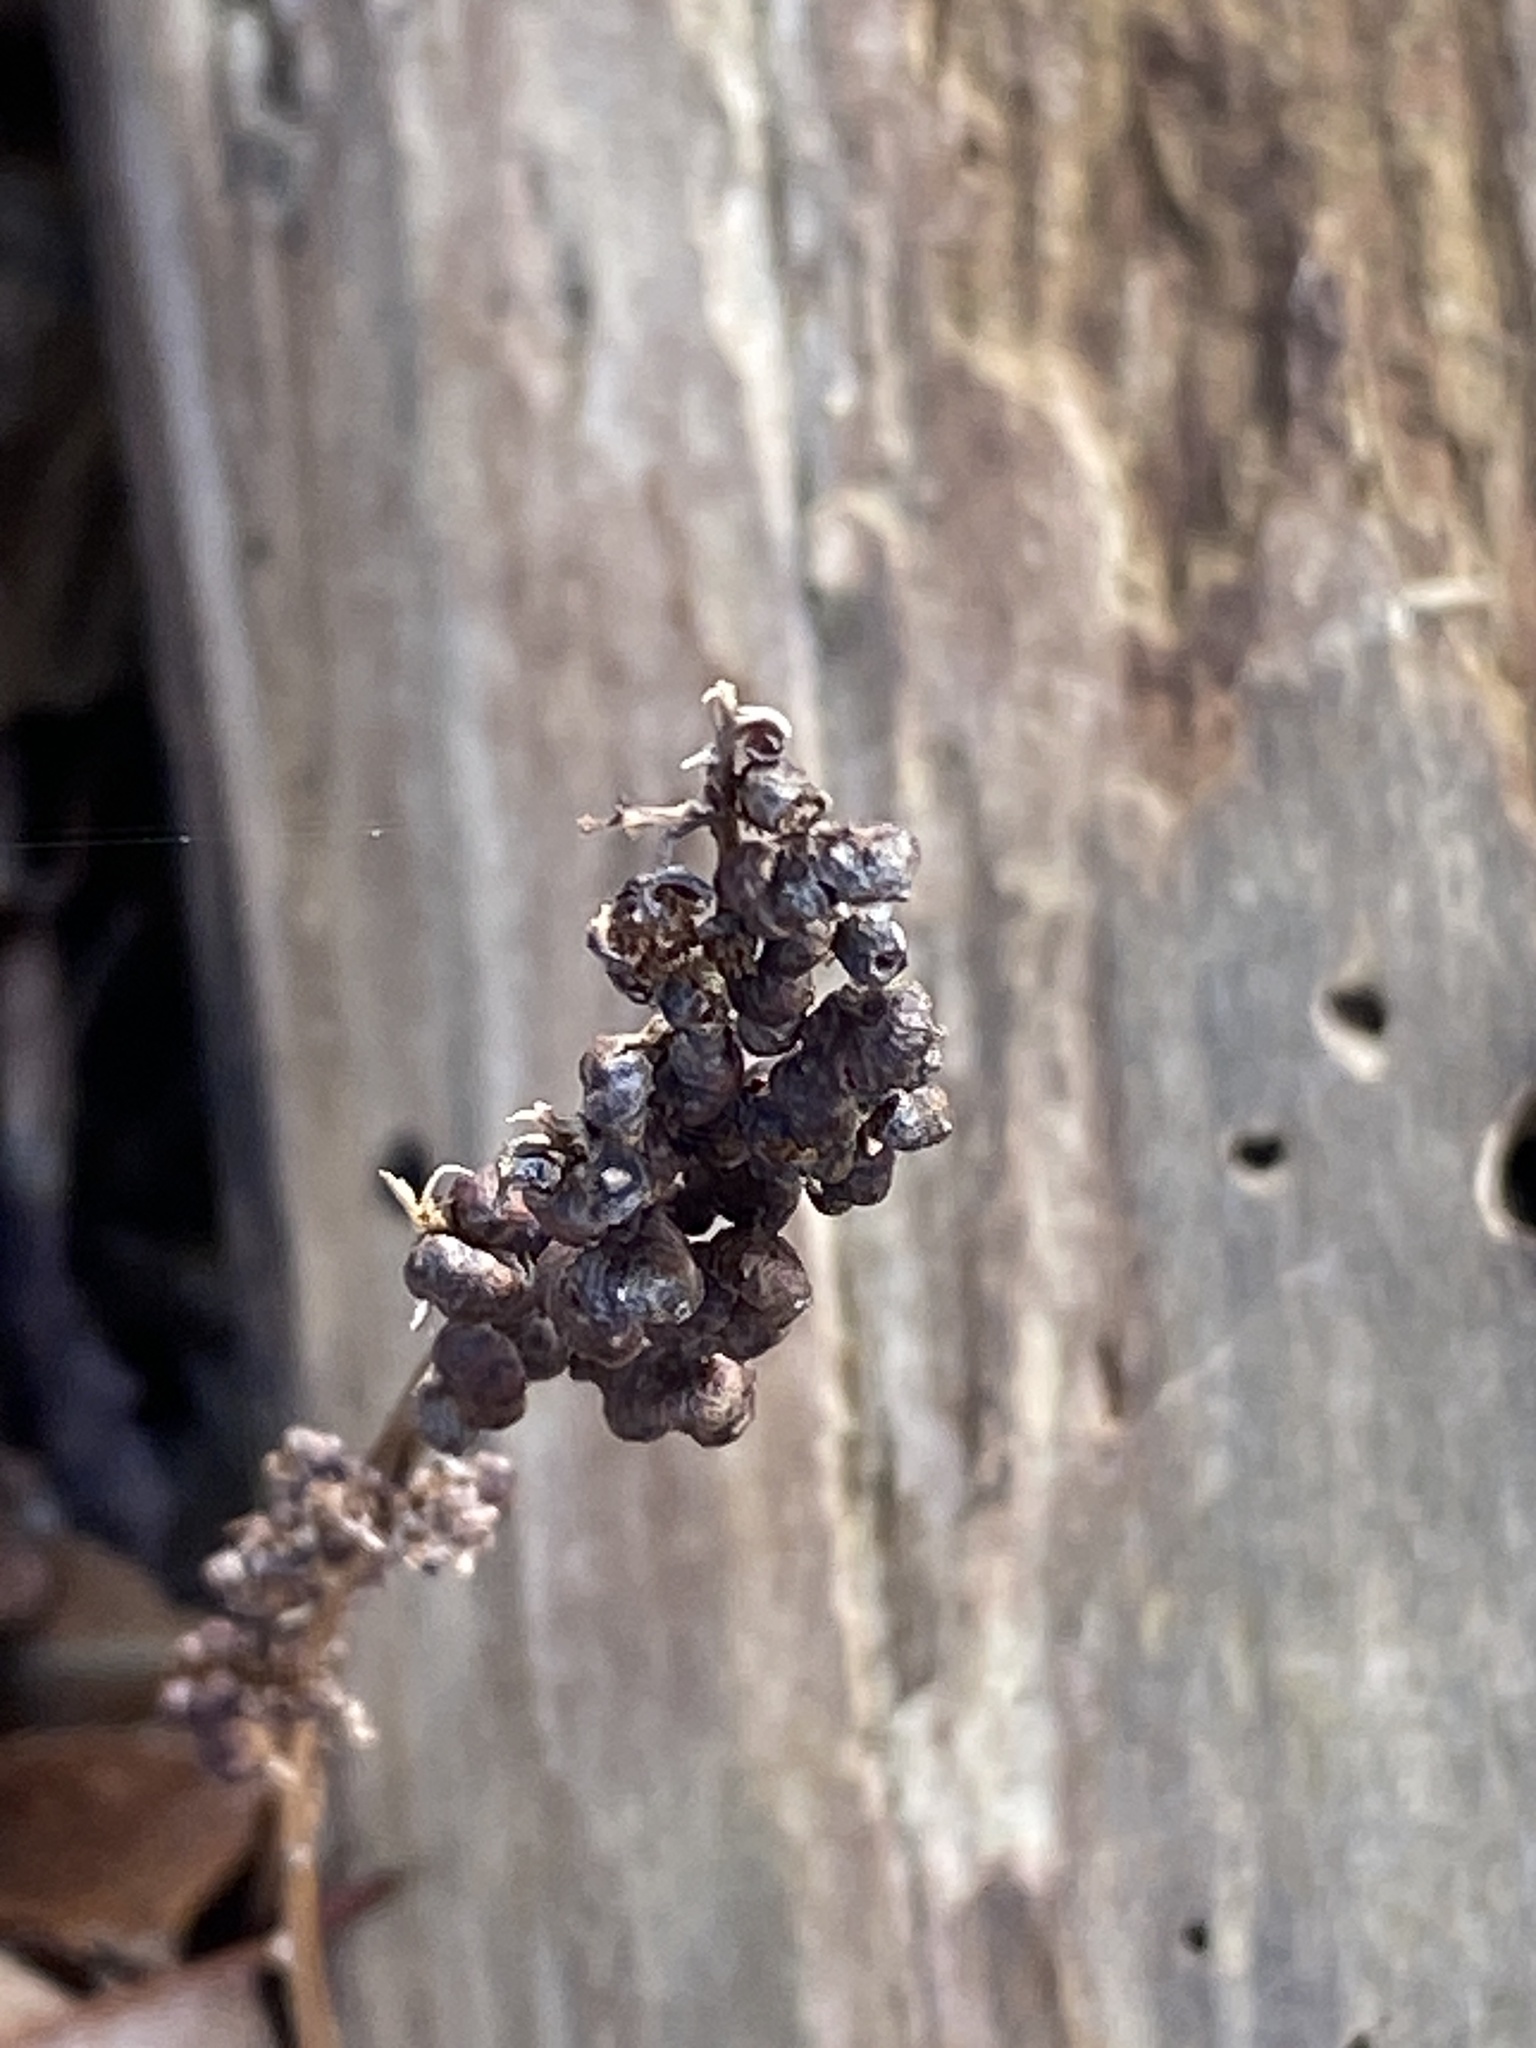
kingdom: Plantae
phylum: Tracheophyta
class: Polypodiopsida
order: Polypodiales
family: Onocleaceae
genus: Onoclea
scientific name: Onoclea sensibilis
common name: Sensitive fern
